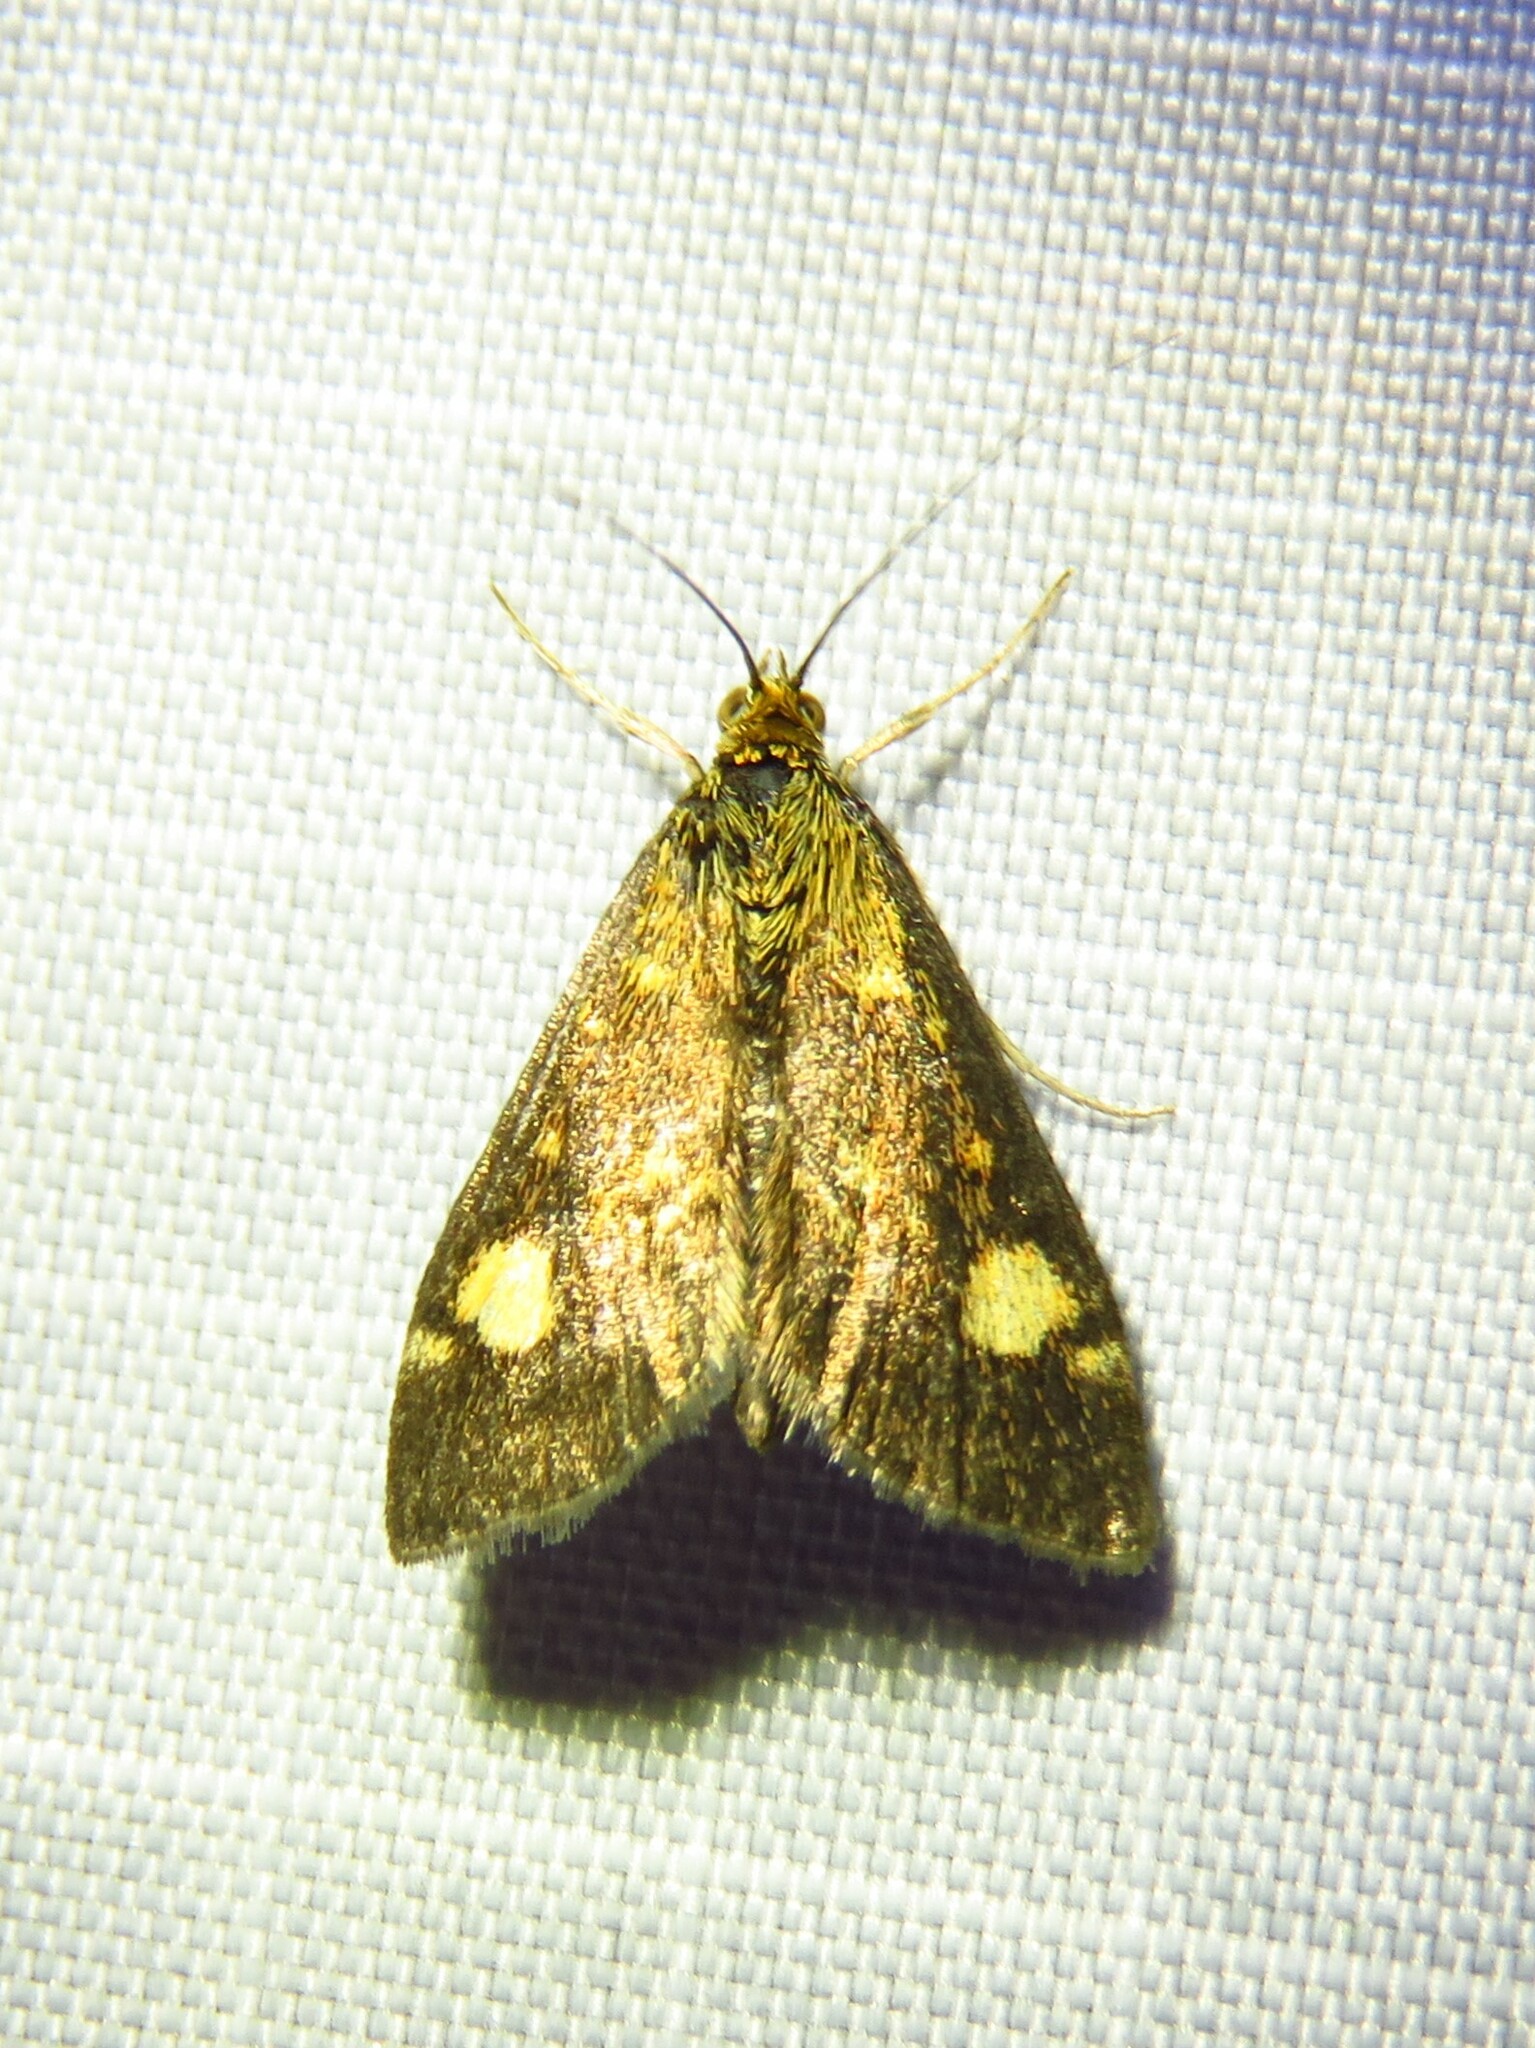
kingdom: Animalia
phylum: Arthropoda
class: Insecta
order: Lepidoptera
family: Crambidae
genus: Pyrausta
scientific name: Pyrausta aurata
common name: Small purple & gold
